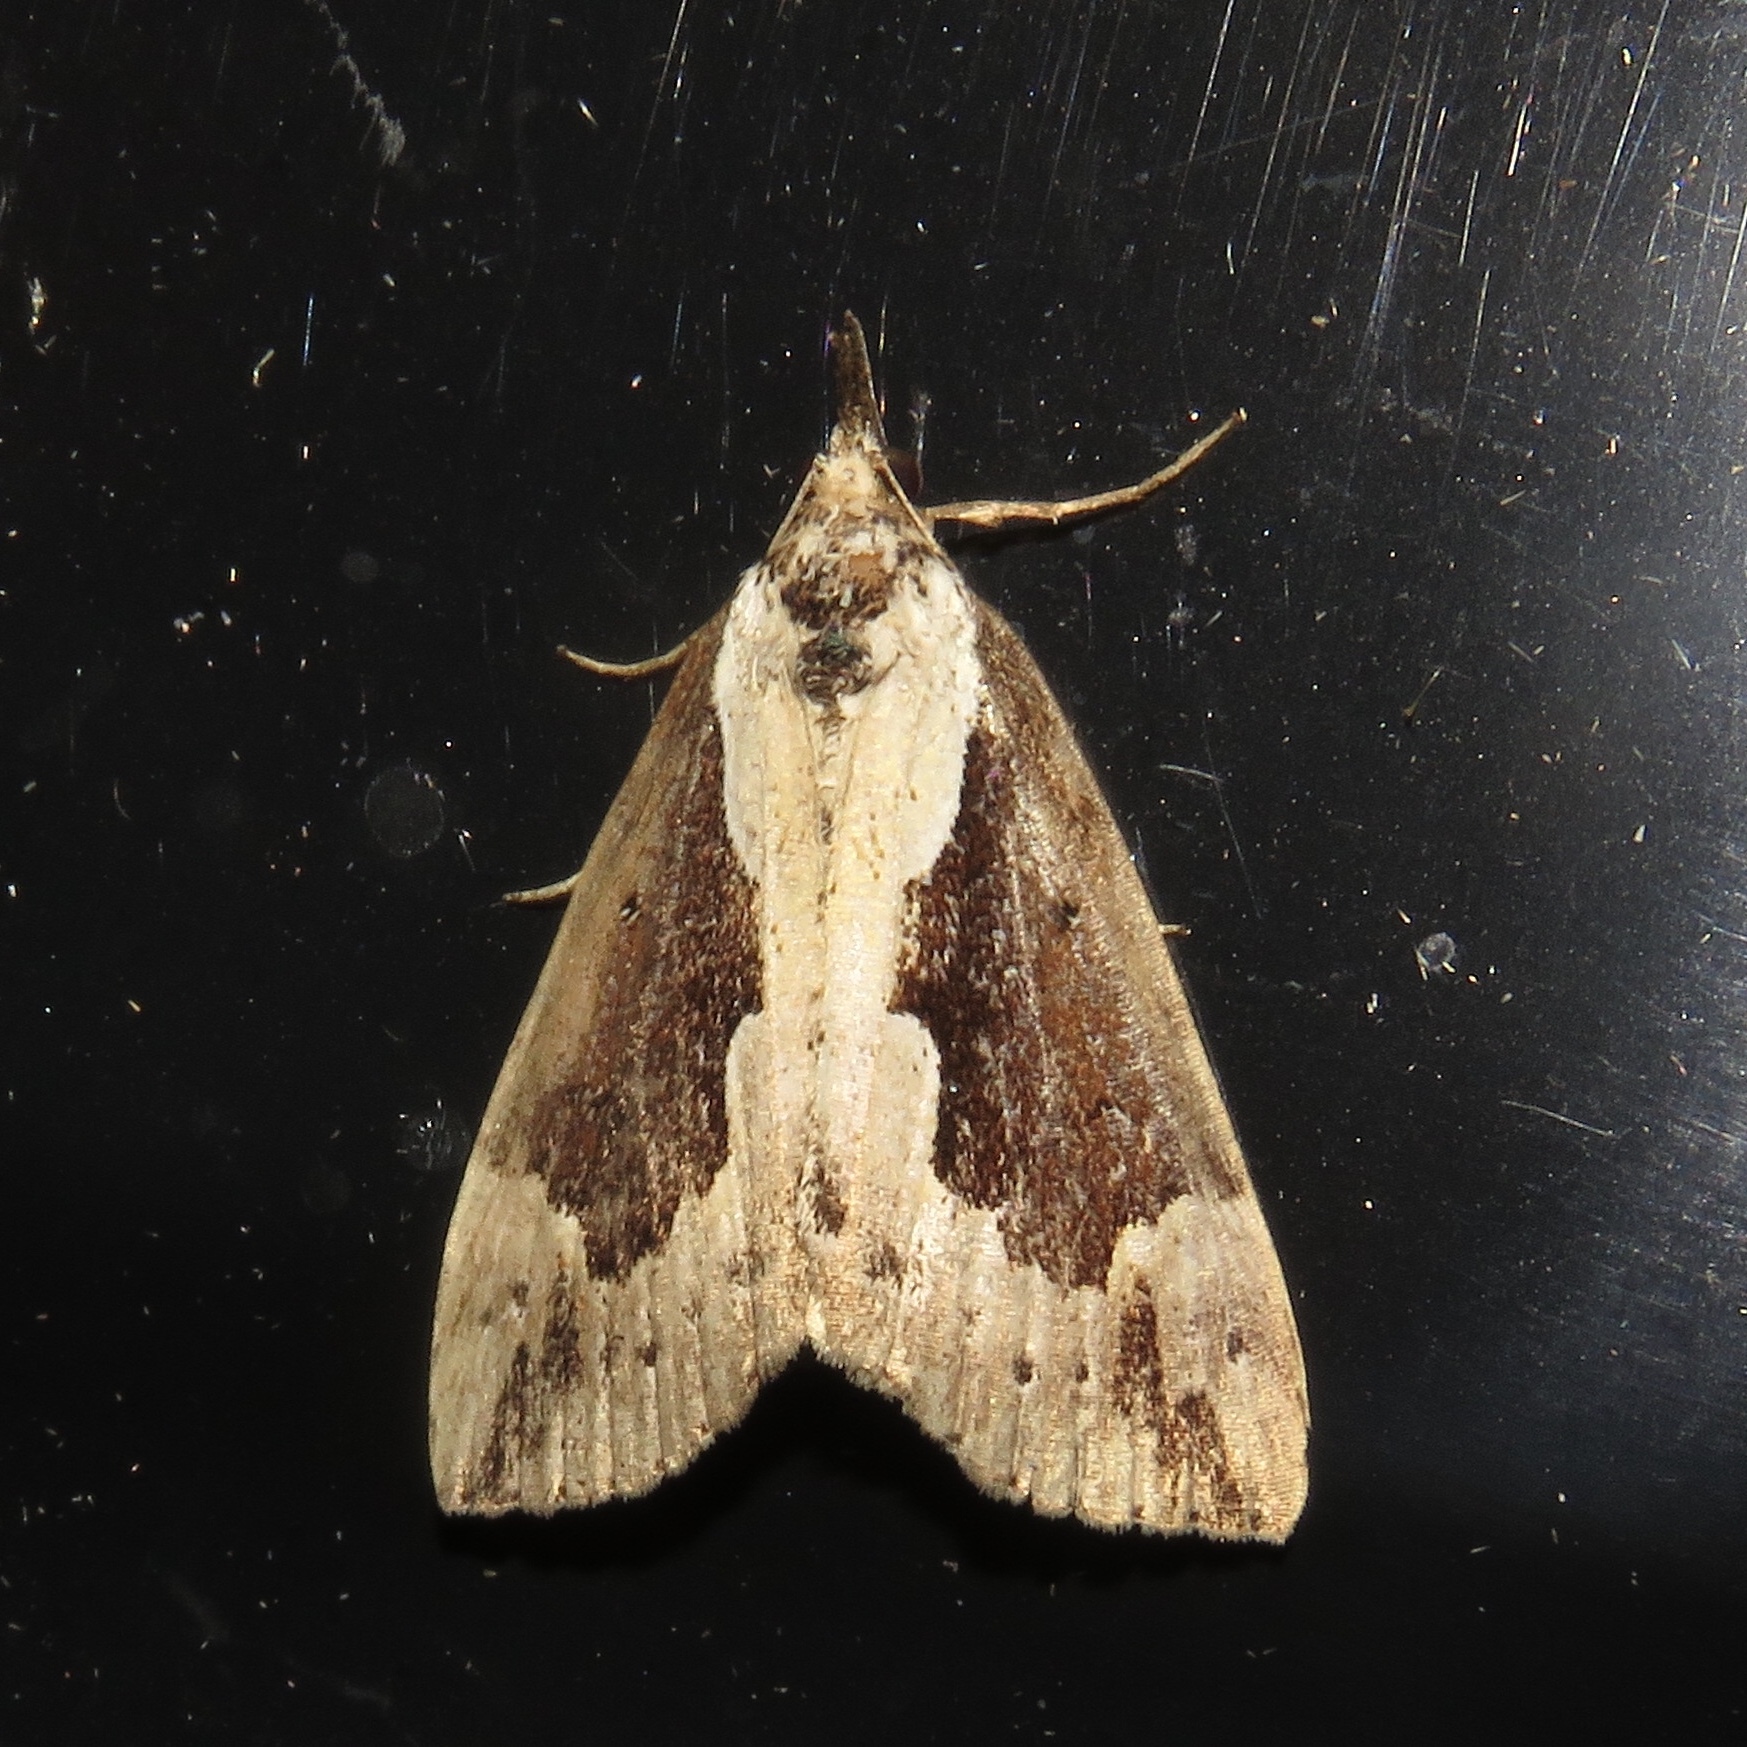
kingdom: Animalia
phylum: Arthropoda
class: Insecta
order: Lepidoptera
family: Erebidae
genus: Hypena
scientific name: Hypena baltimoralis
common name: Baltimore snout
